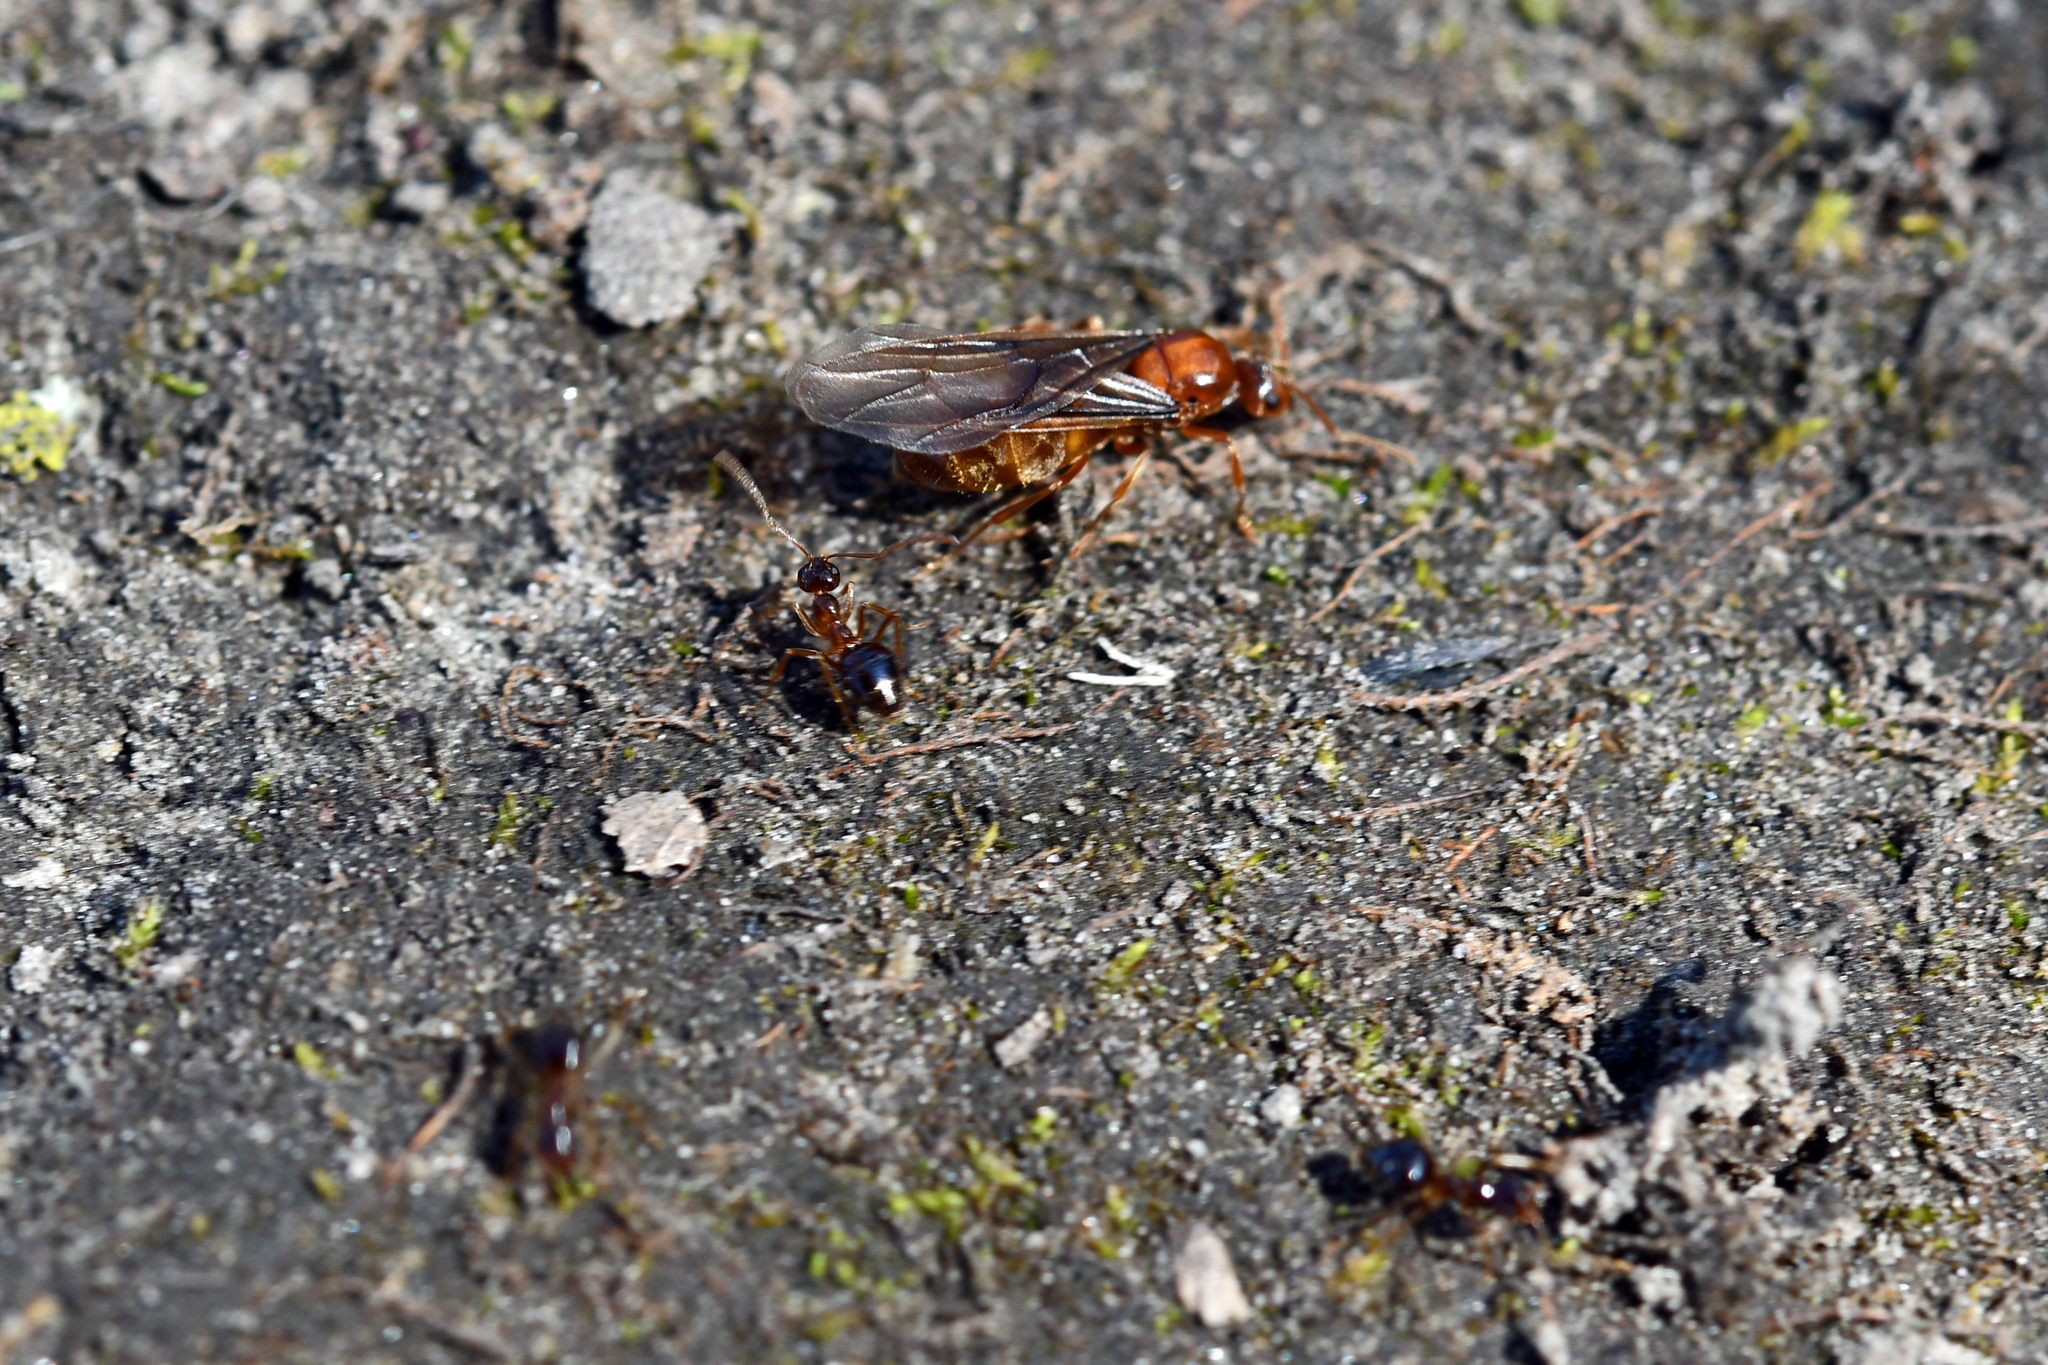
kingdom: Animalia
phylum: Arthropoda
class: Insecta
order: Hymenoptera
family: Formicidae
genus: Prenolepis
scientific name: Prenolepis imparis
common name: Small honey ant
